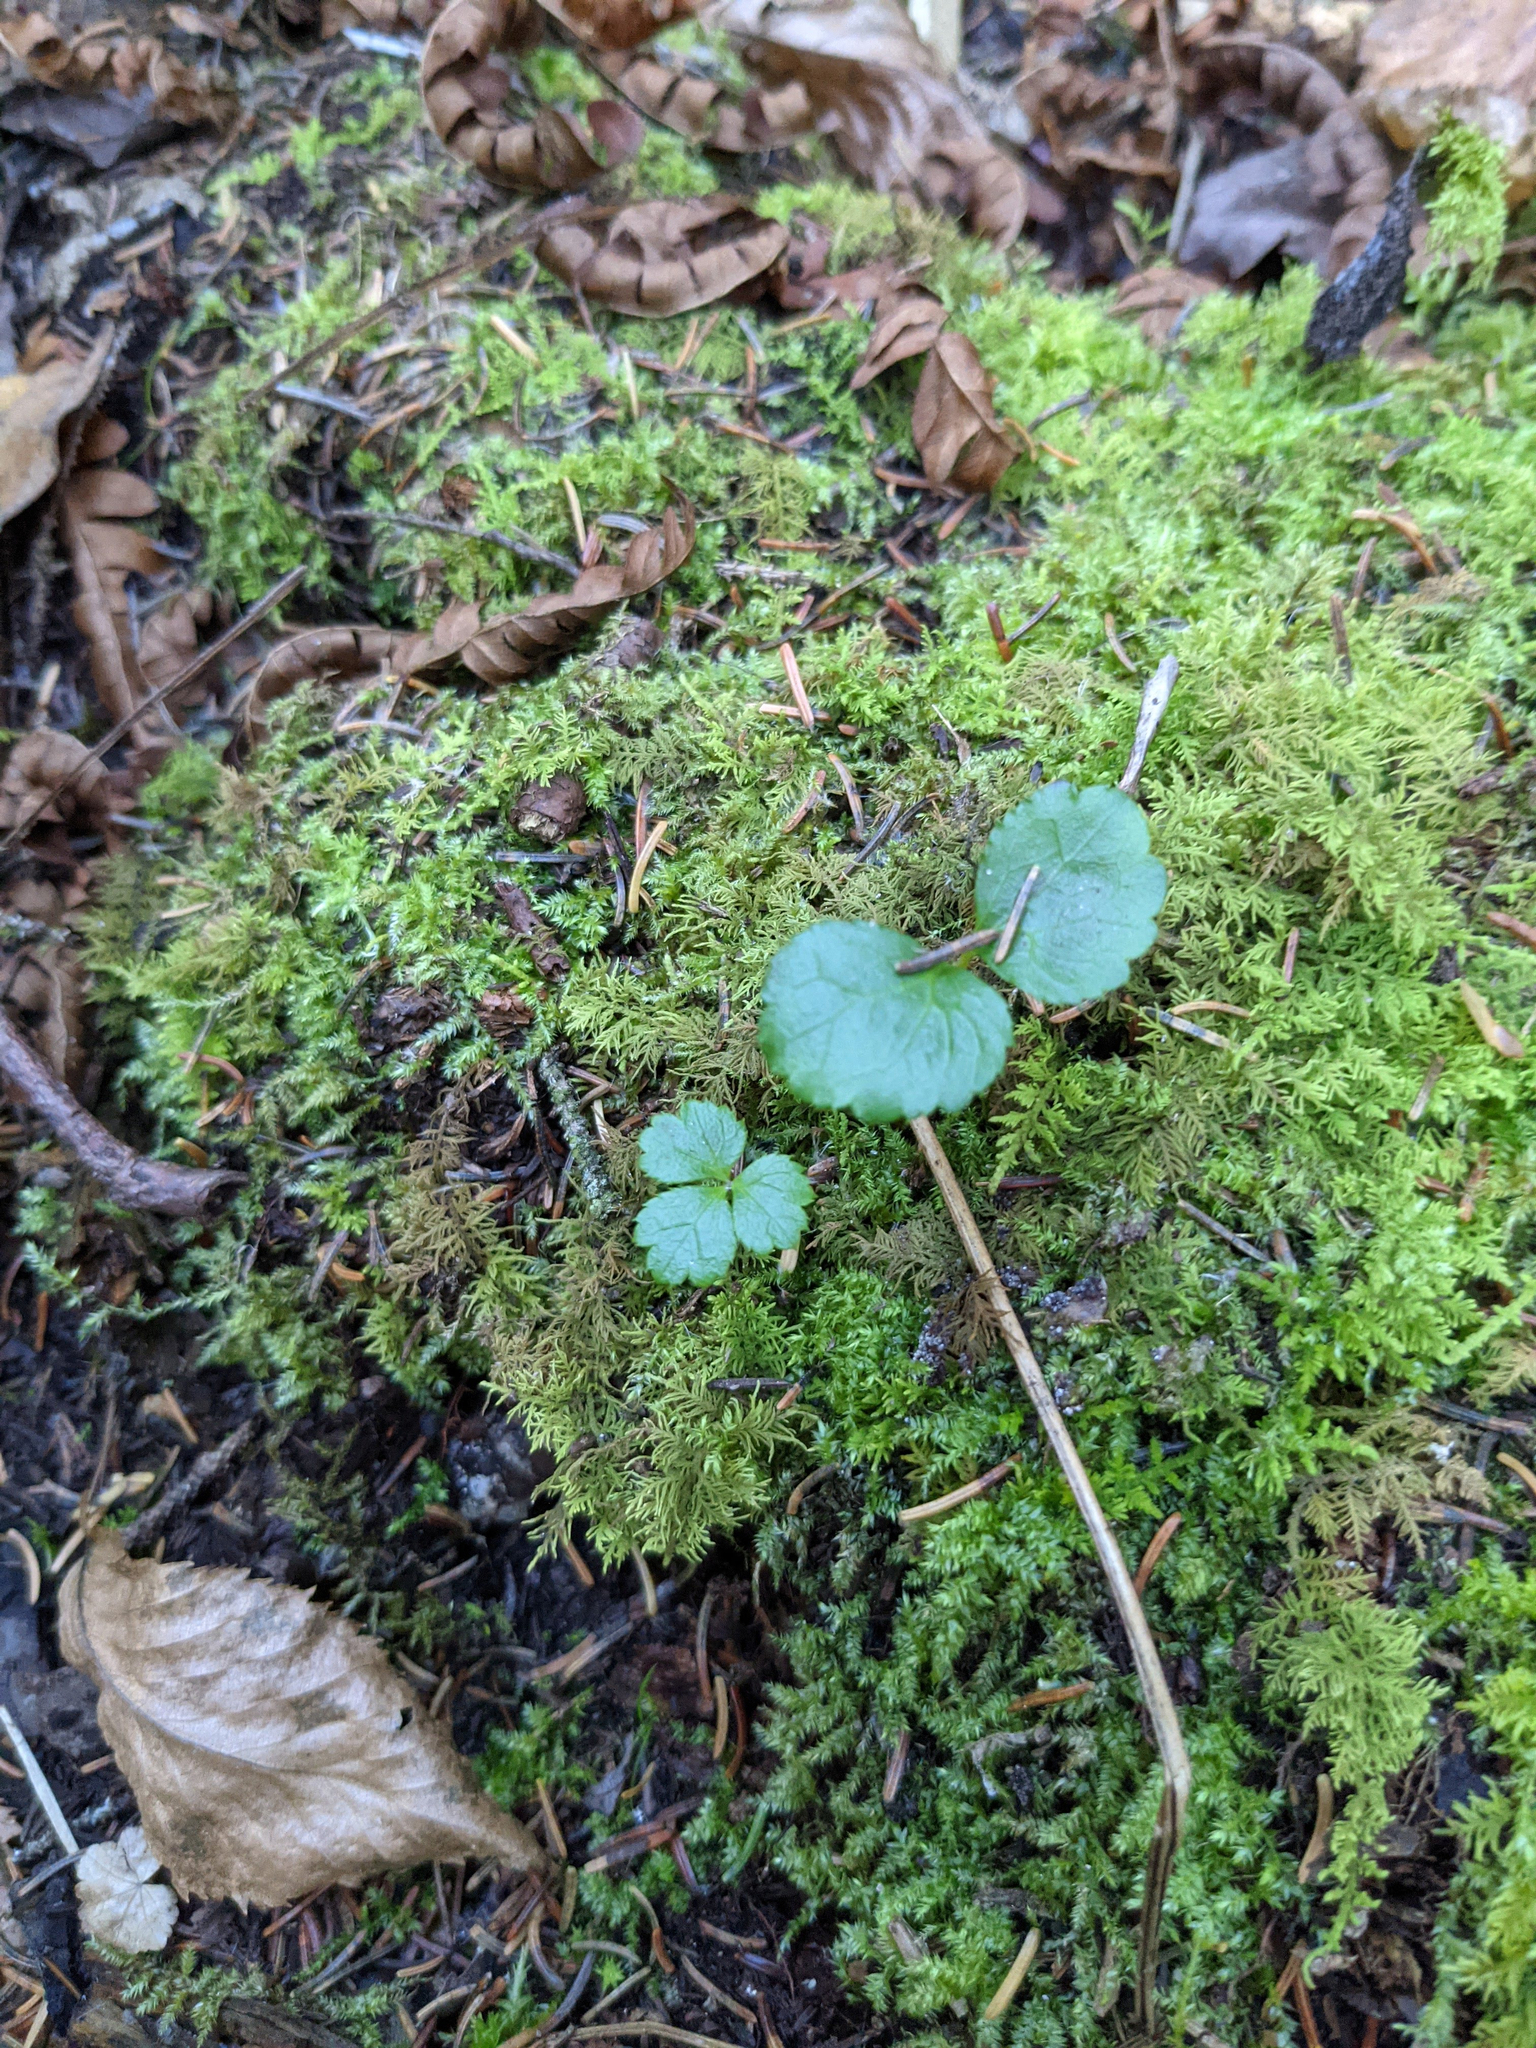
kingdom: Plantae
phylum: Tracheophyta
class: Magnoliopsida
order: Ranunculales
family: Ranunculaceae
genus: Coptis
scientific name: Coptis trifolia
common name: Canker-root
